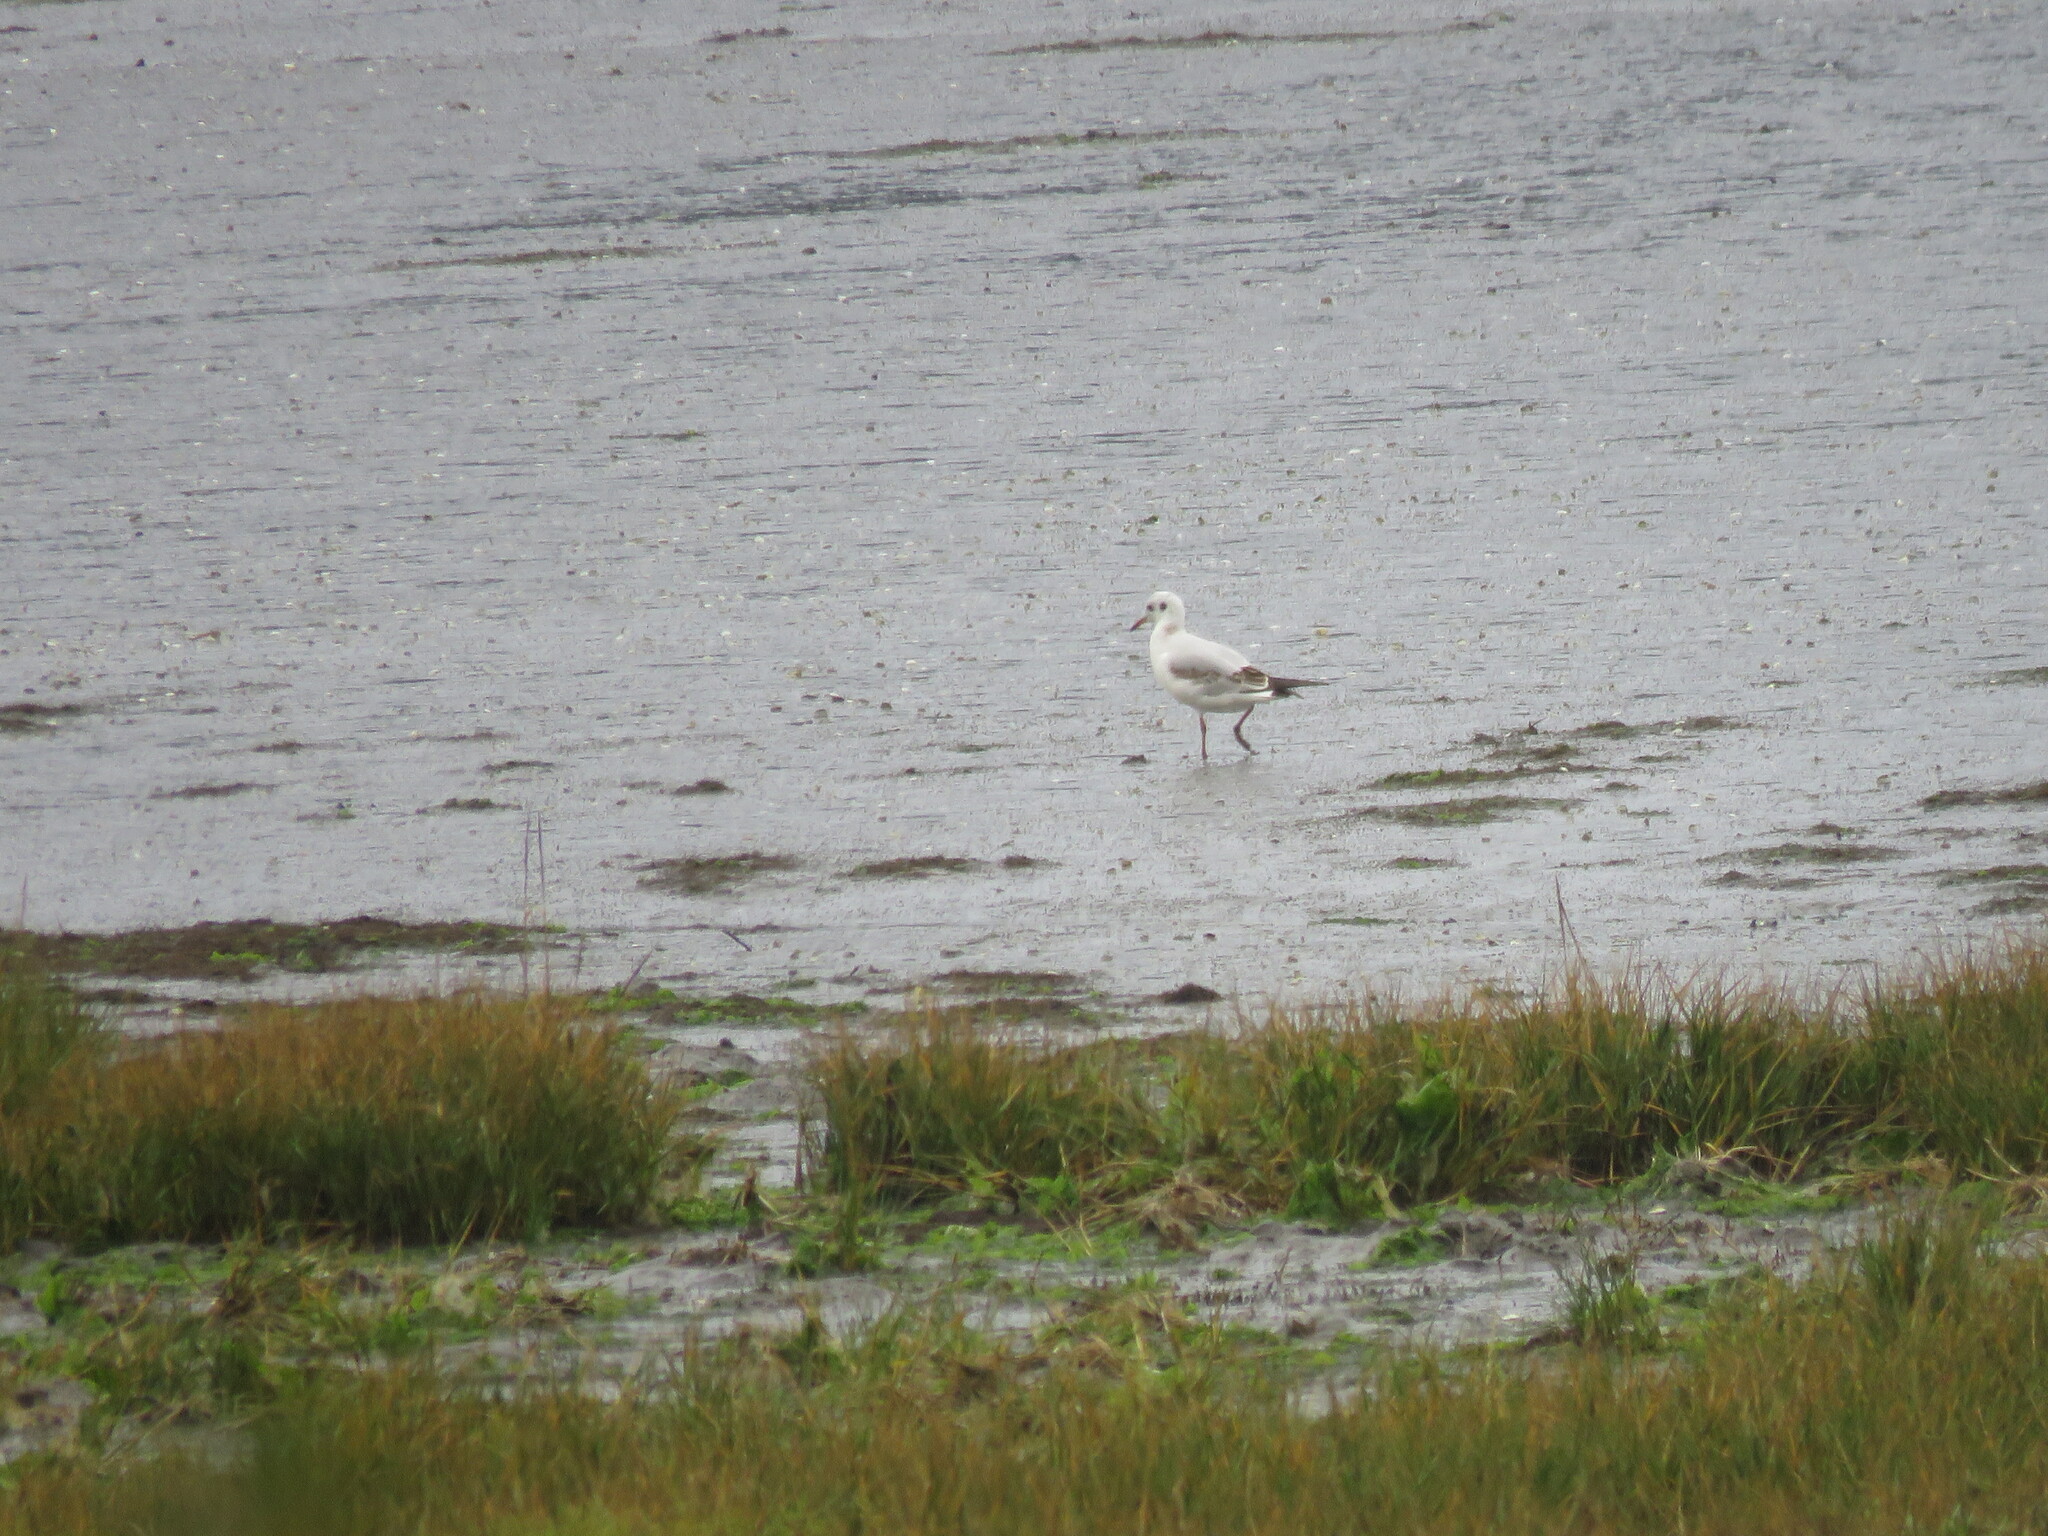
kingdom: Animalia
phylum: Chordata
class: Aves
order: Charadriiformes
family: Laridae
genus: Chroicocephalus
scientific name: Chroicocephalus ridibundus
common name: Black-headed gull
